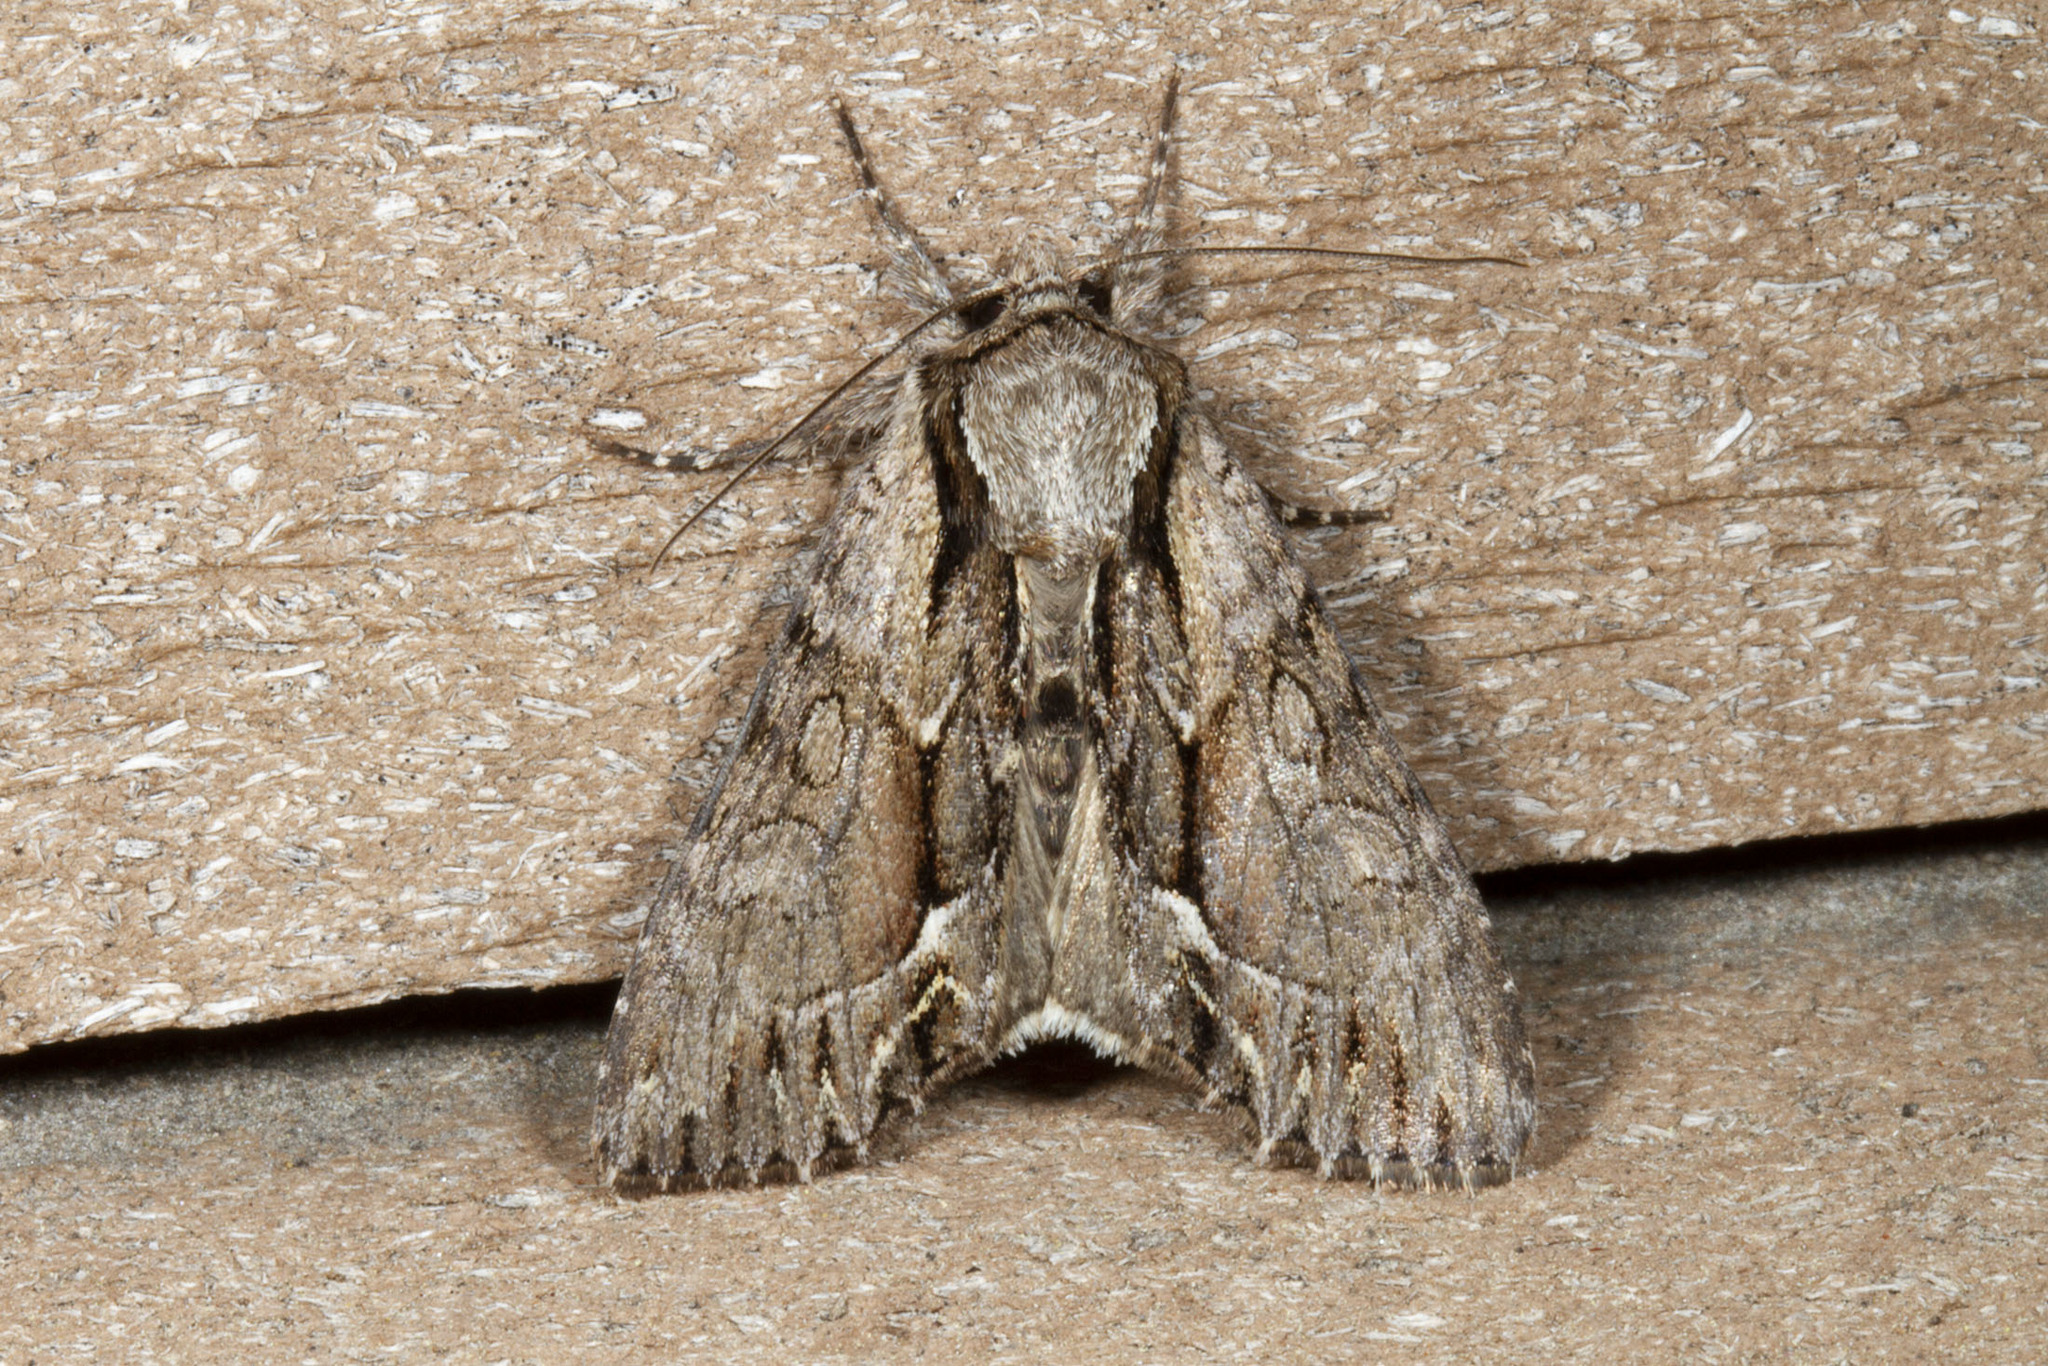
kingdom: Animalia
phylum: Arthropoda
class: Insecta
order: Lepidoptera
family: Noctuidae
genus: Hyppa
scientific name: Hyppa xylinoides
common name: Common hyppa moth
